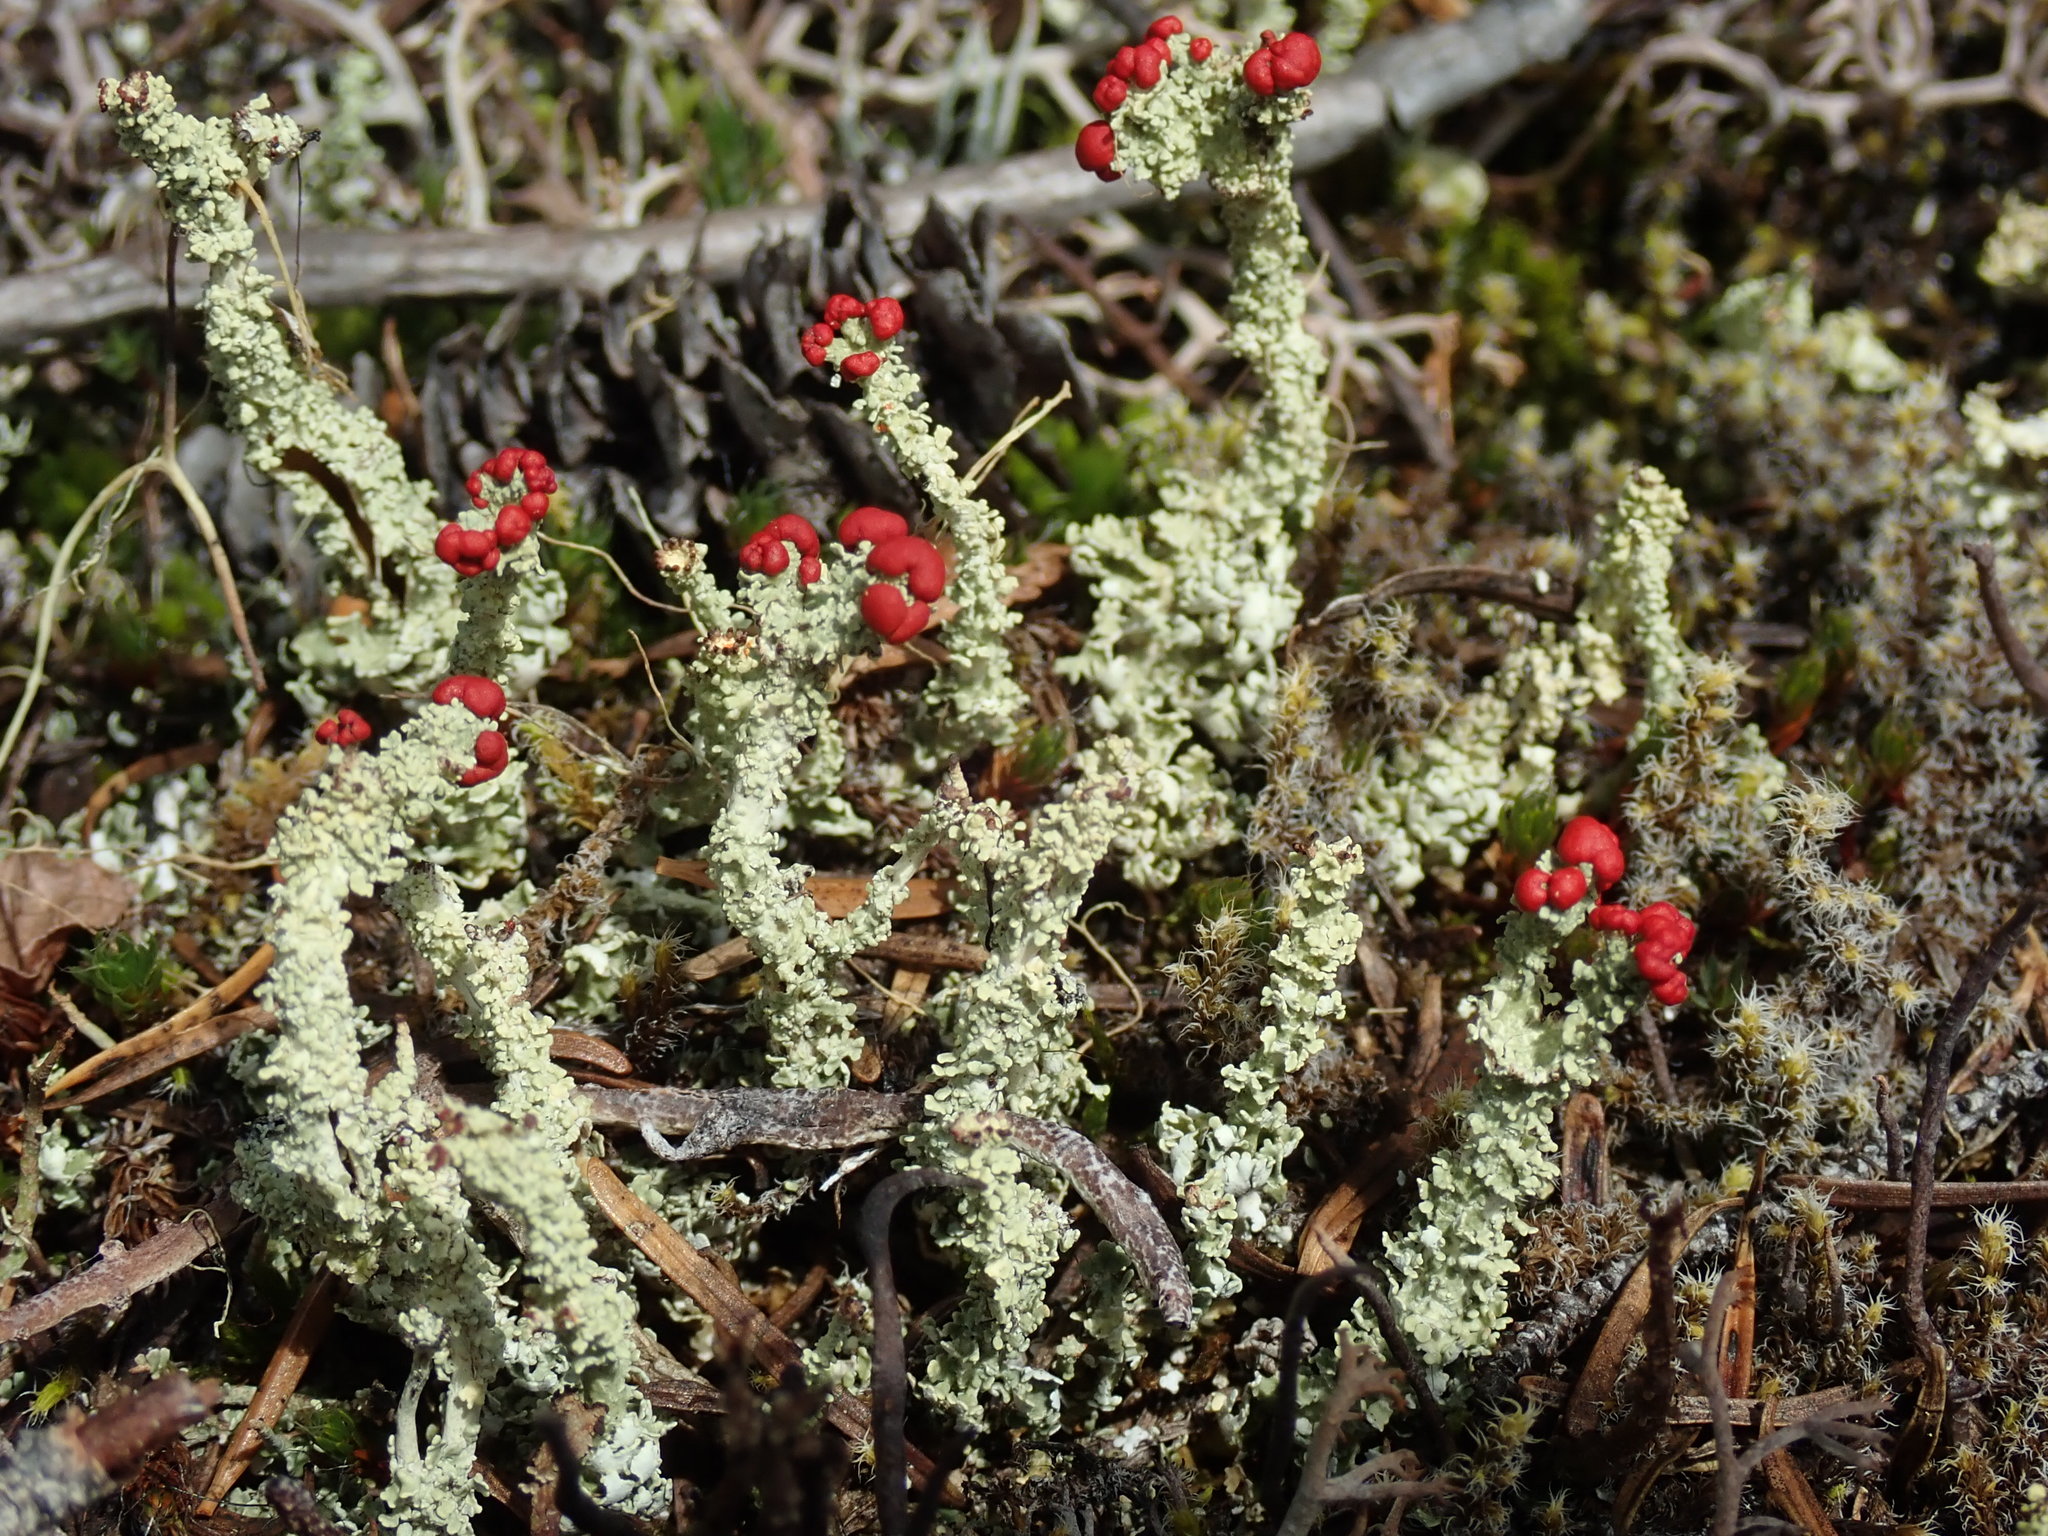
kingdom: Fungi
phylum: Ascomycota
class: Lecanoromycetes
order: Lecanorales
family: Cladoniaceae
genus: Cladonia
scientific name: Cladonia bellidiflora
